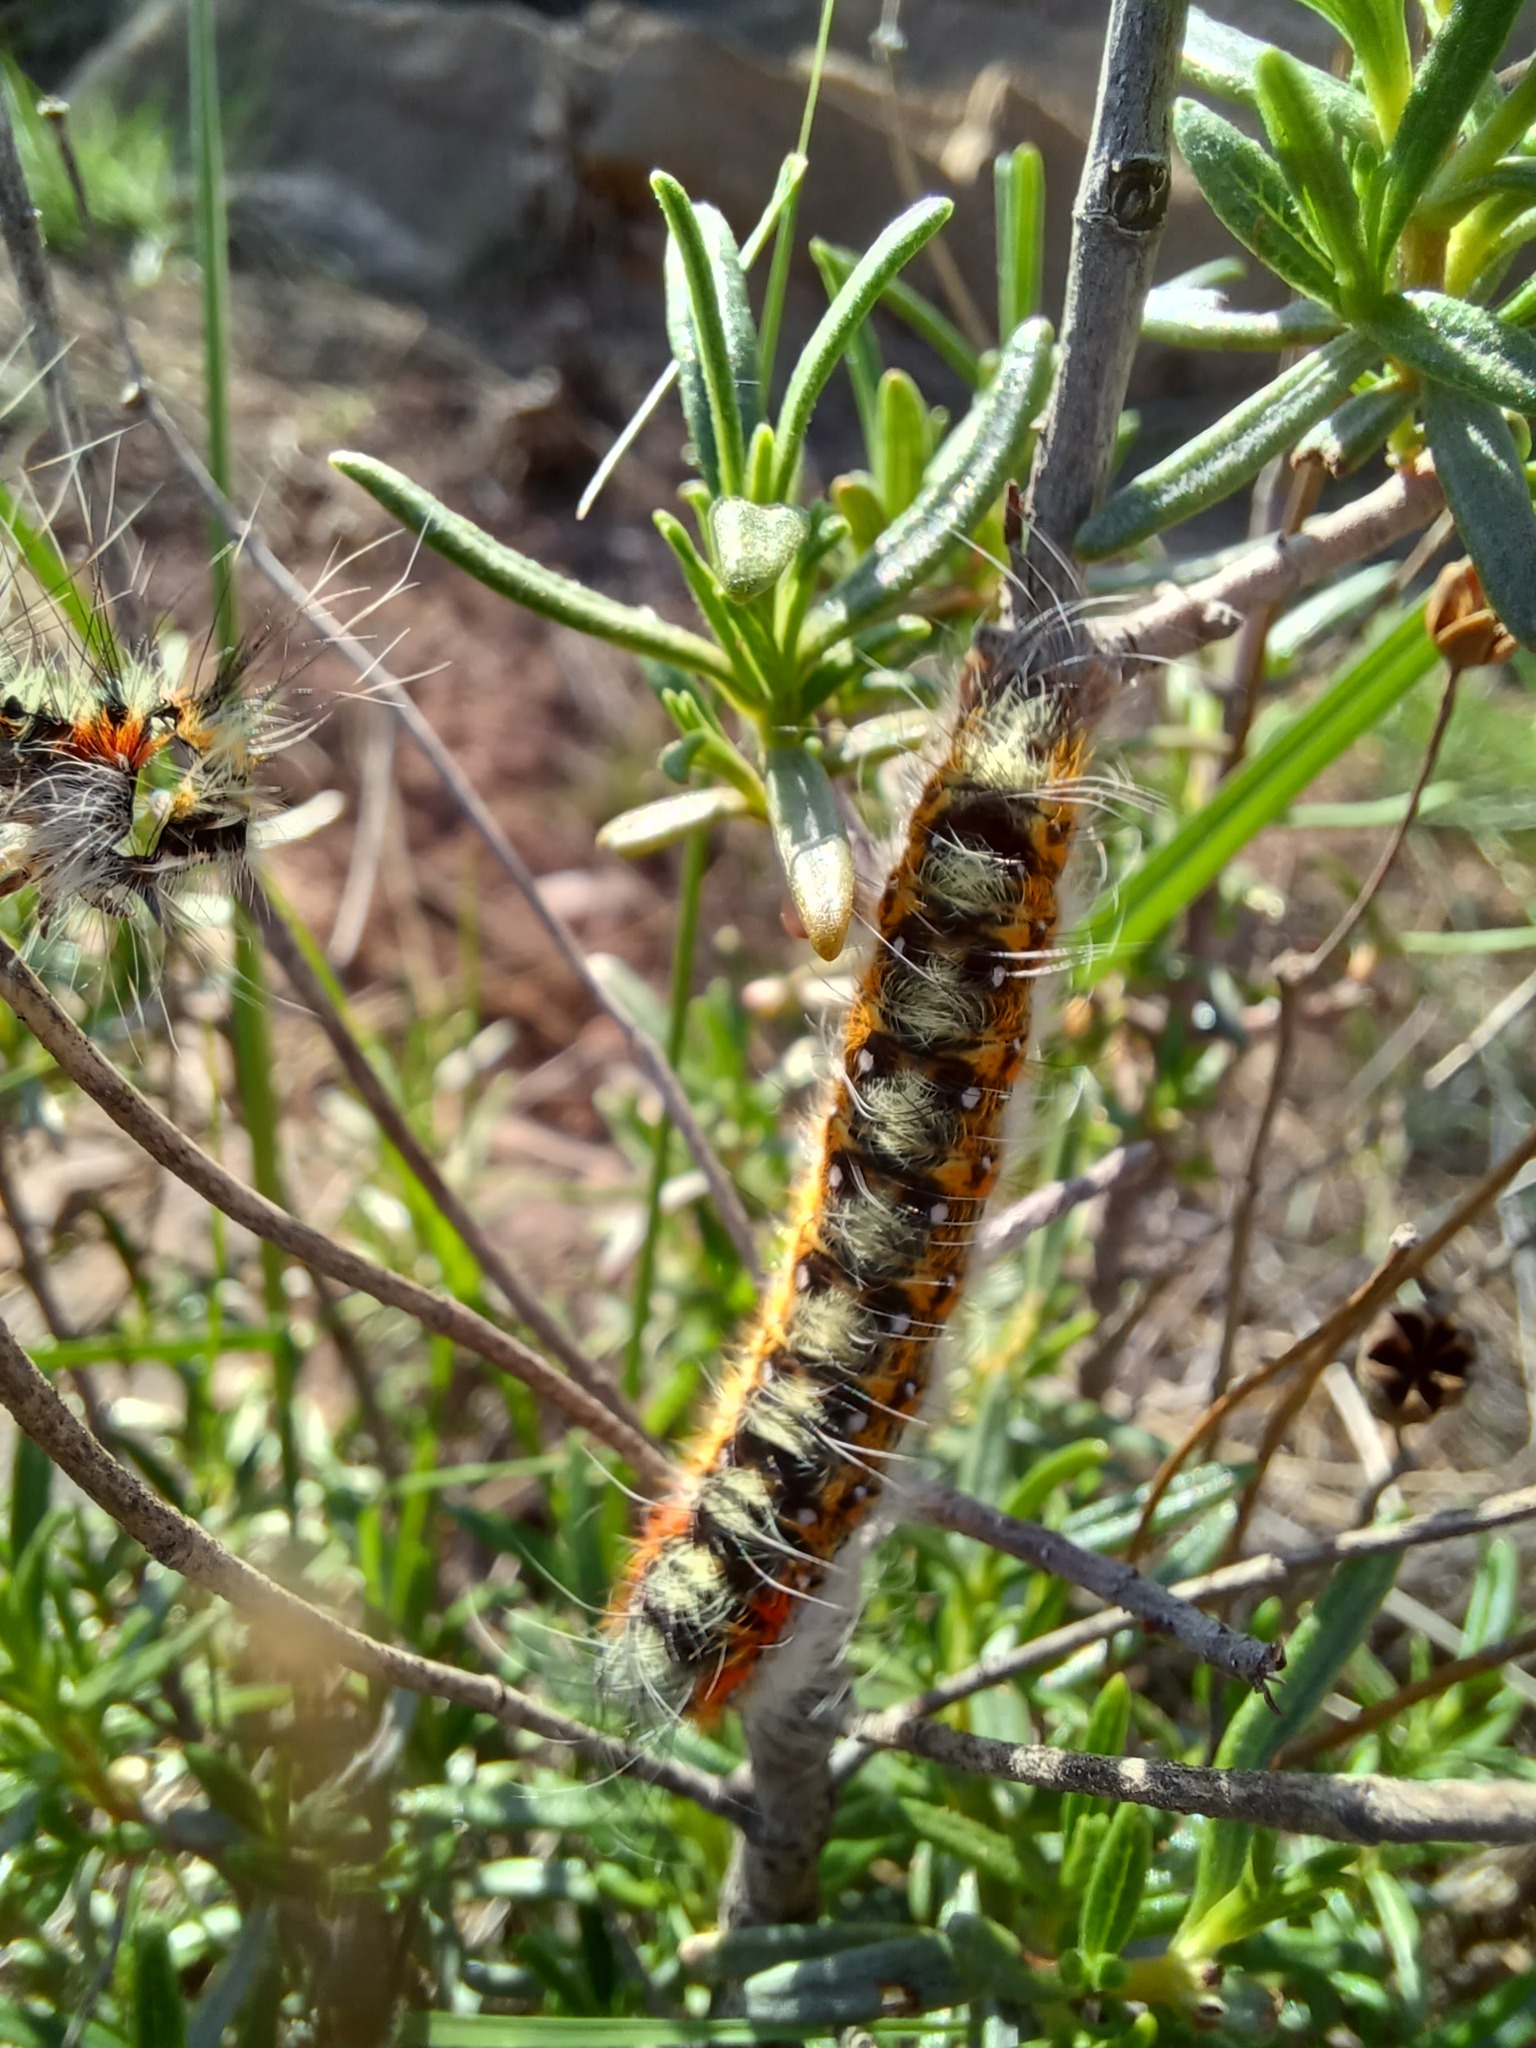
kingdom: Animalia
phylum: Arthropoda
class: Insecta
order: Lepidoptera
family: Lasiocampidae
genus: Psilogaster
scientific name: Psilogaster loti
